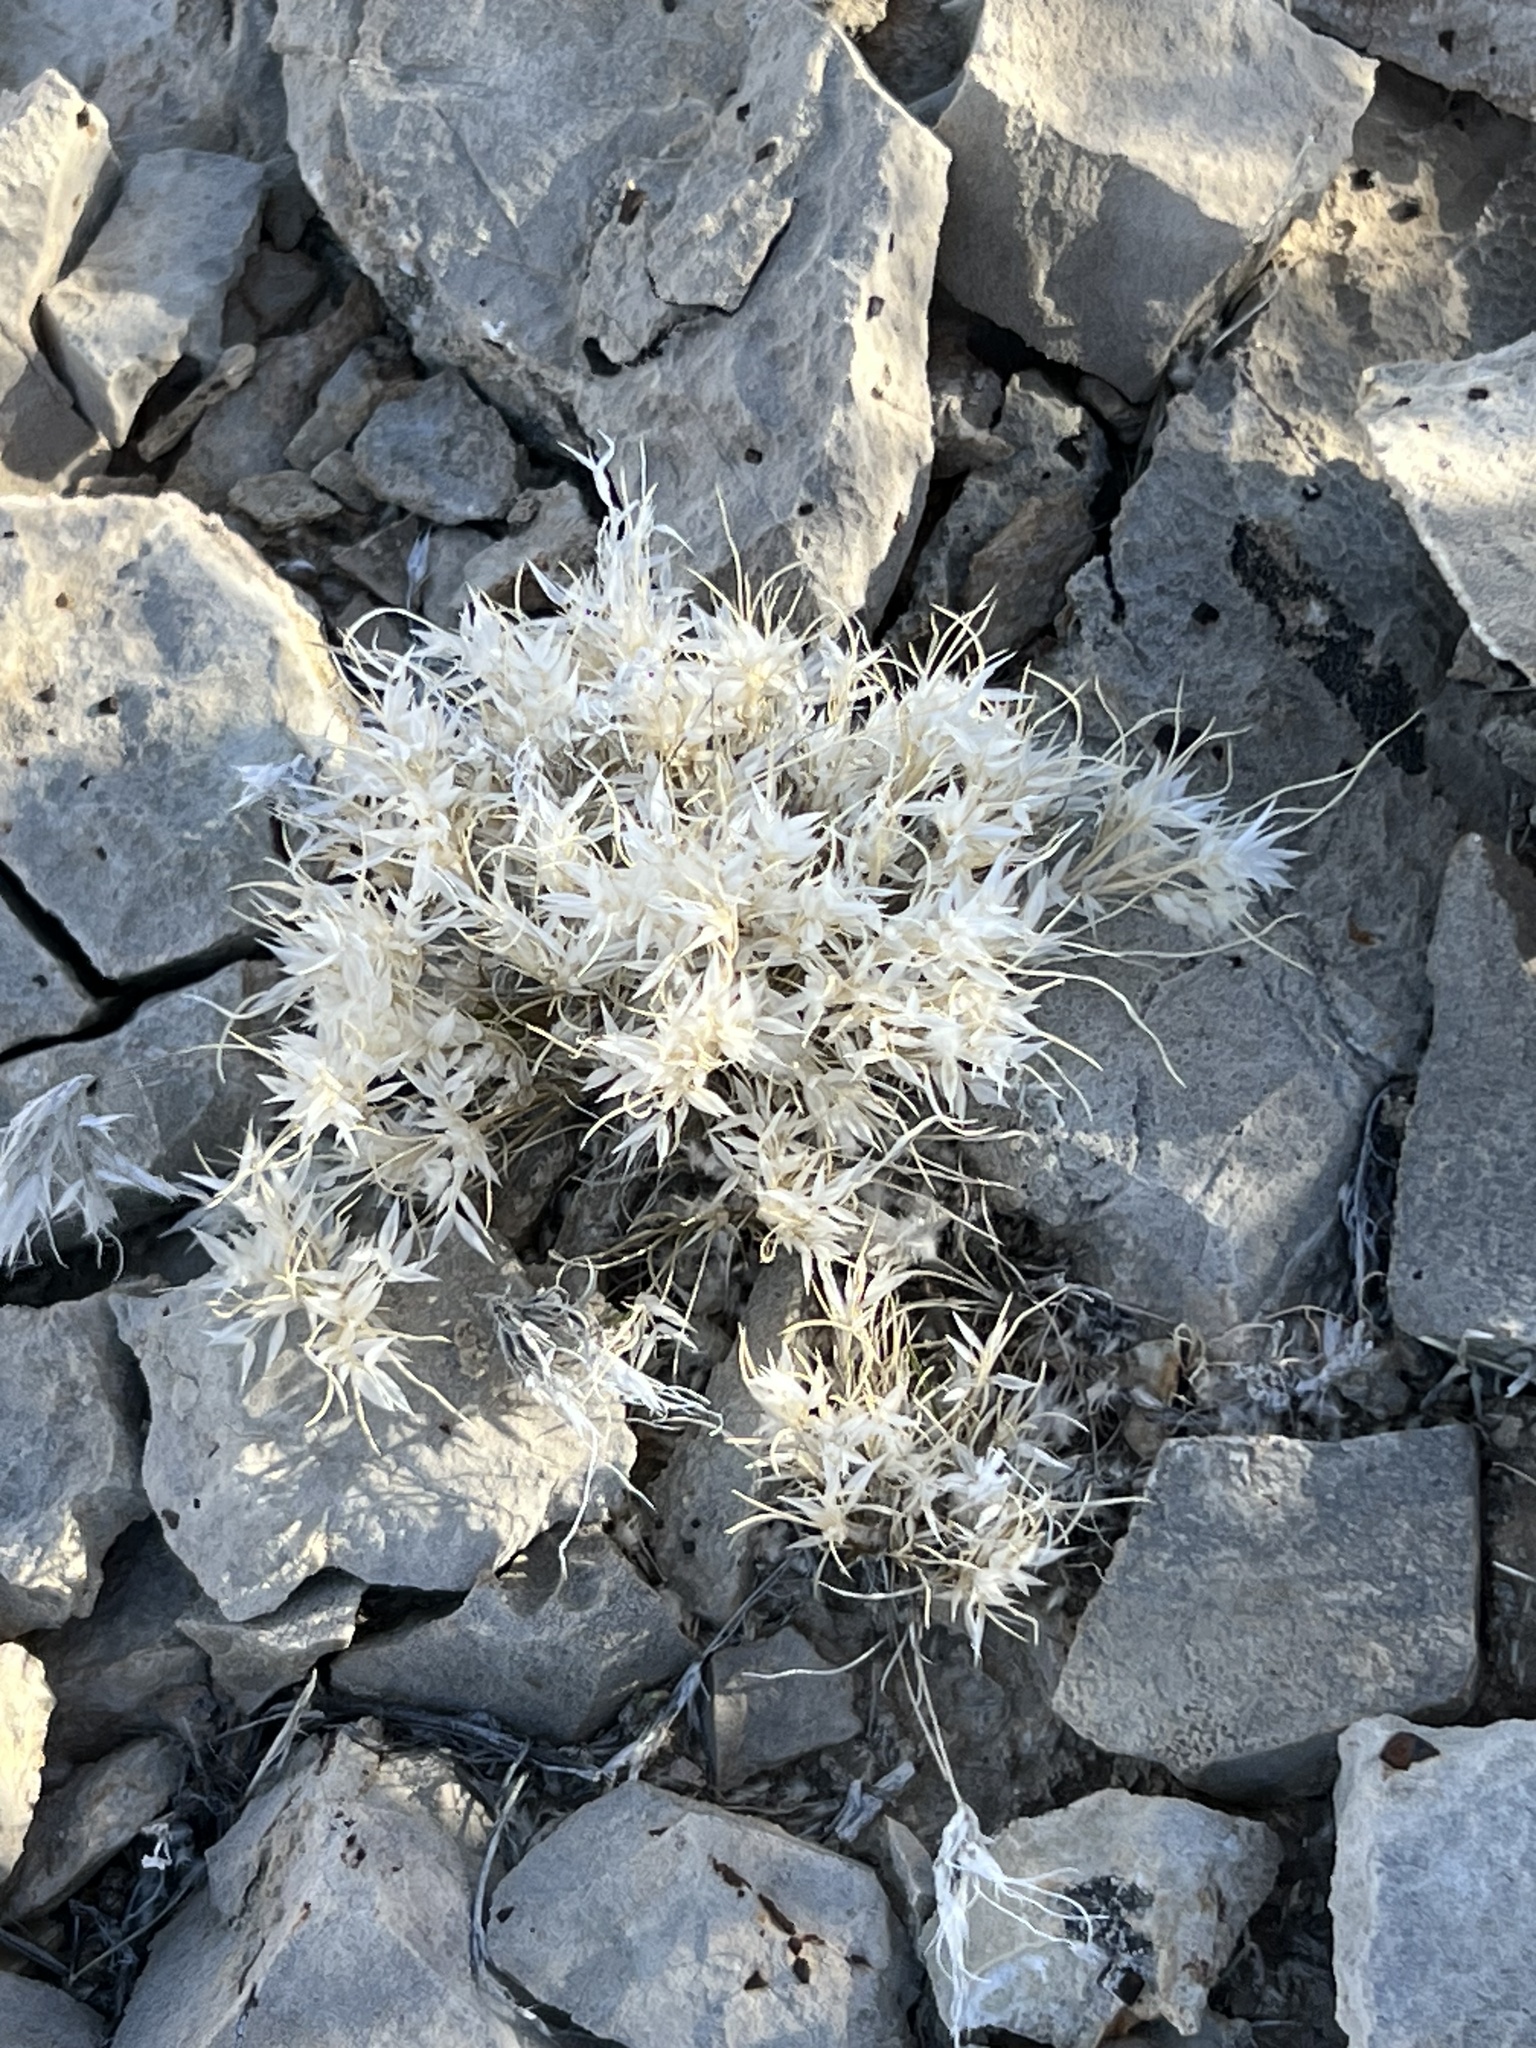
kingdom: Plantae
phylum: Tracheophyta
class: Liliopsida
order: Poales
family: Poaceae
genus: Dasyochloa
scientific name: Dasyochloa pulchella
